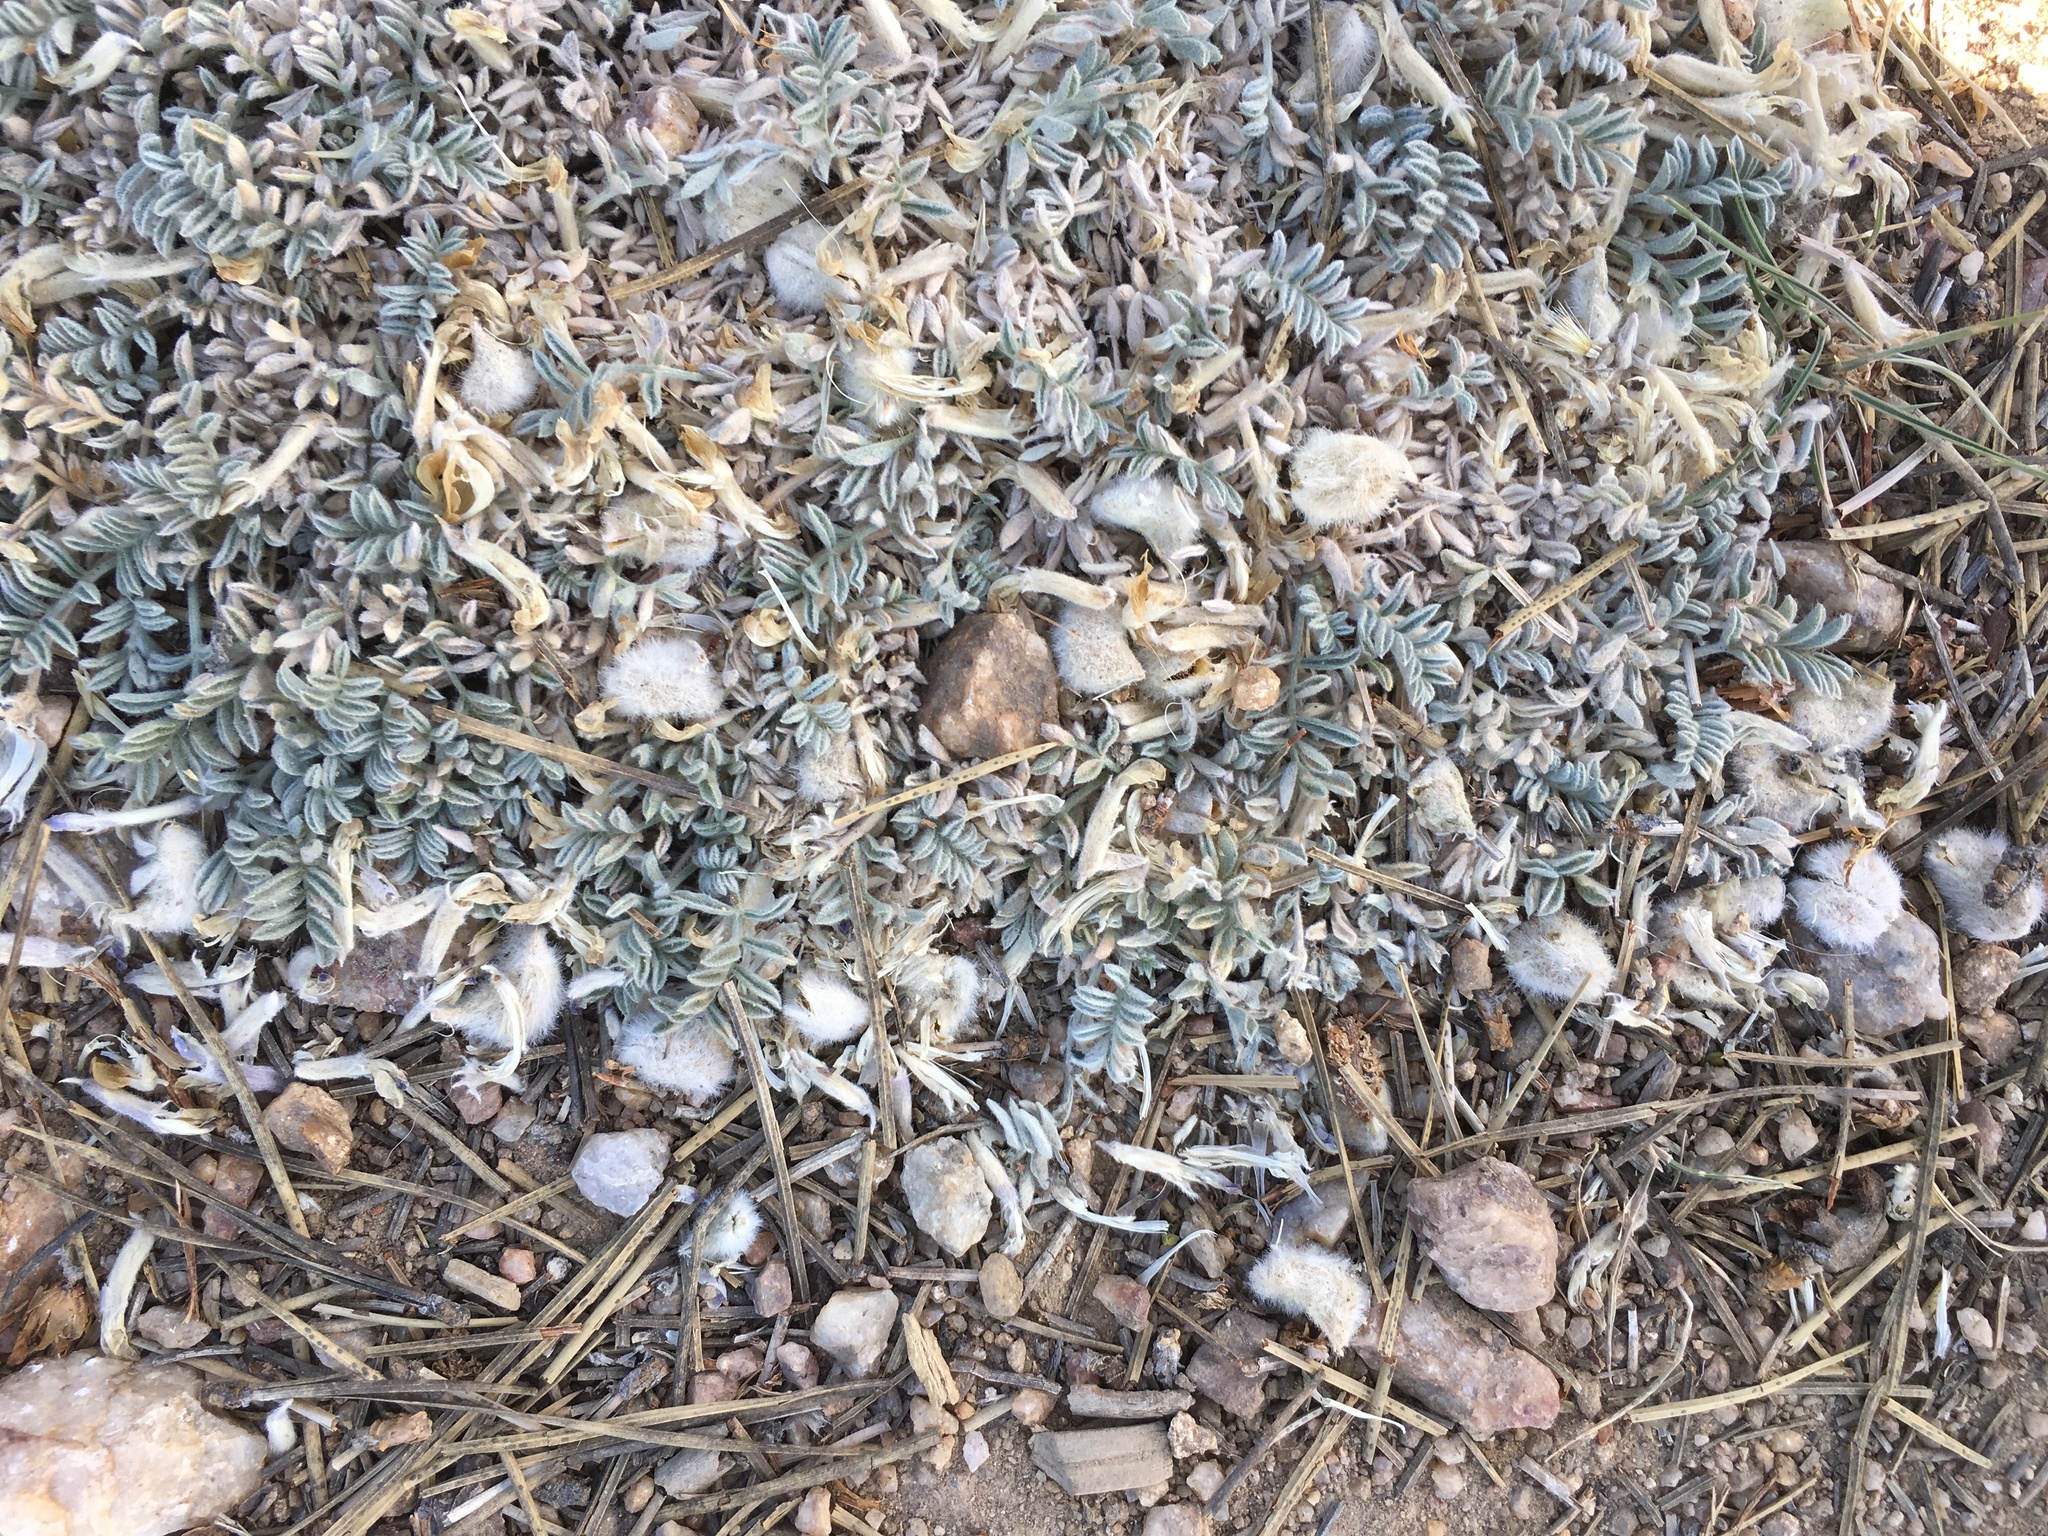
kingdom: Plantae
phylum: Tracheophyta
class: Magnoliopsida
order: Fabales
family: Fabaceae
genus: Astragalus
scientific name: Astragalus purshii
